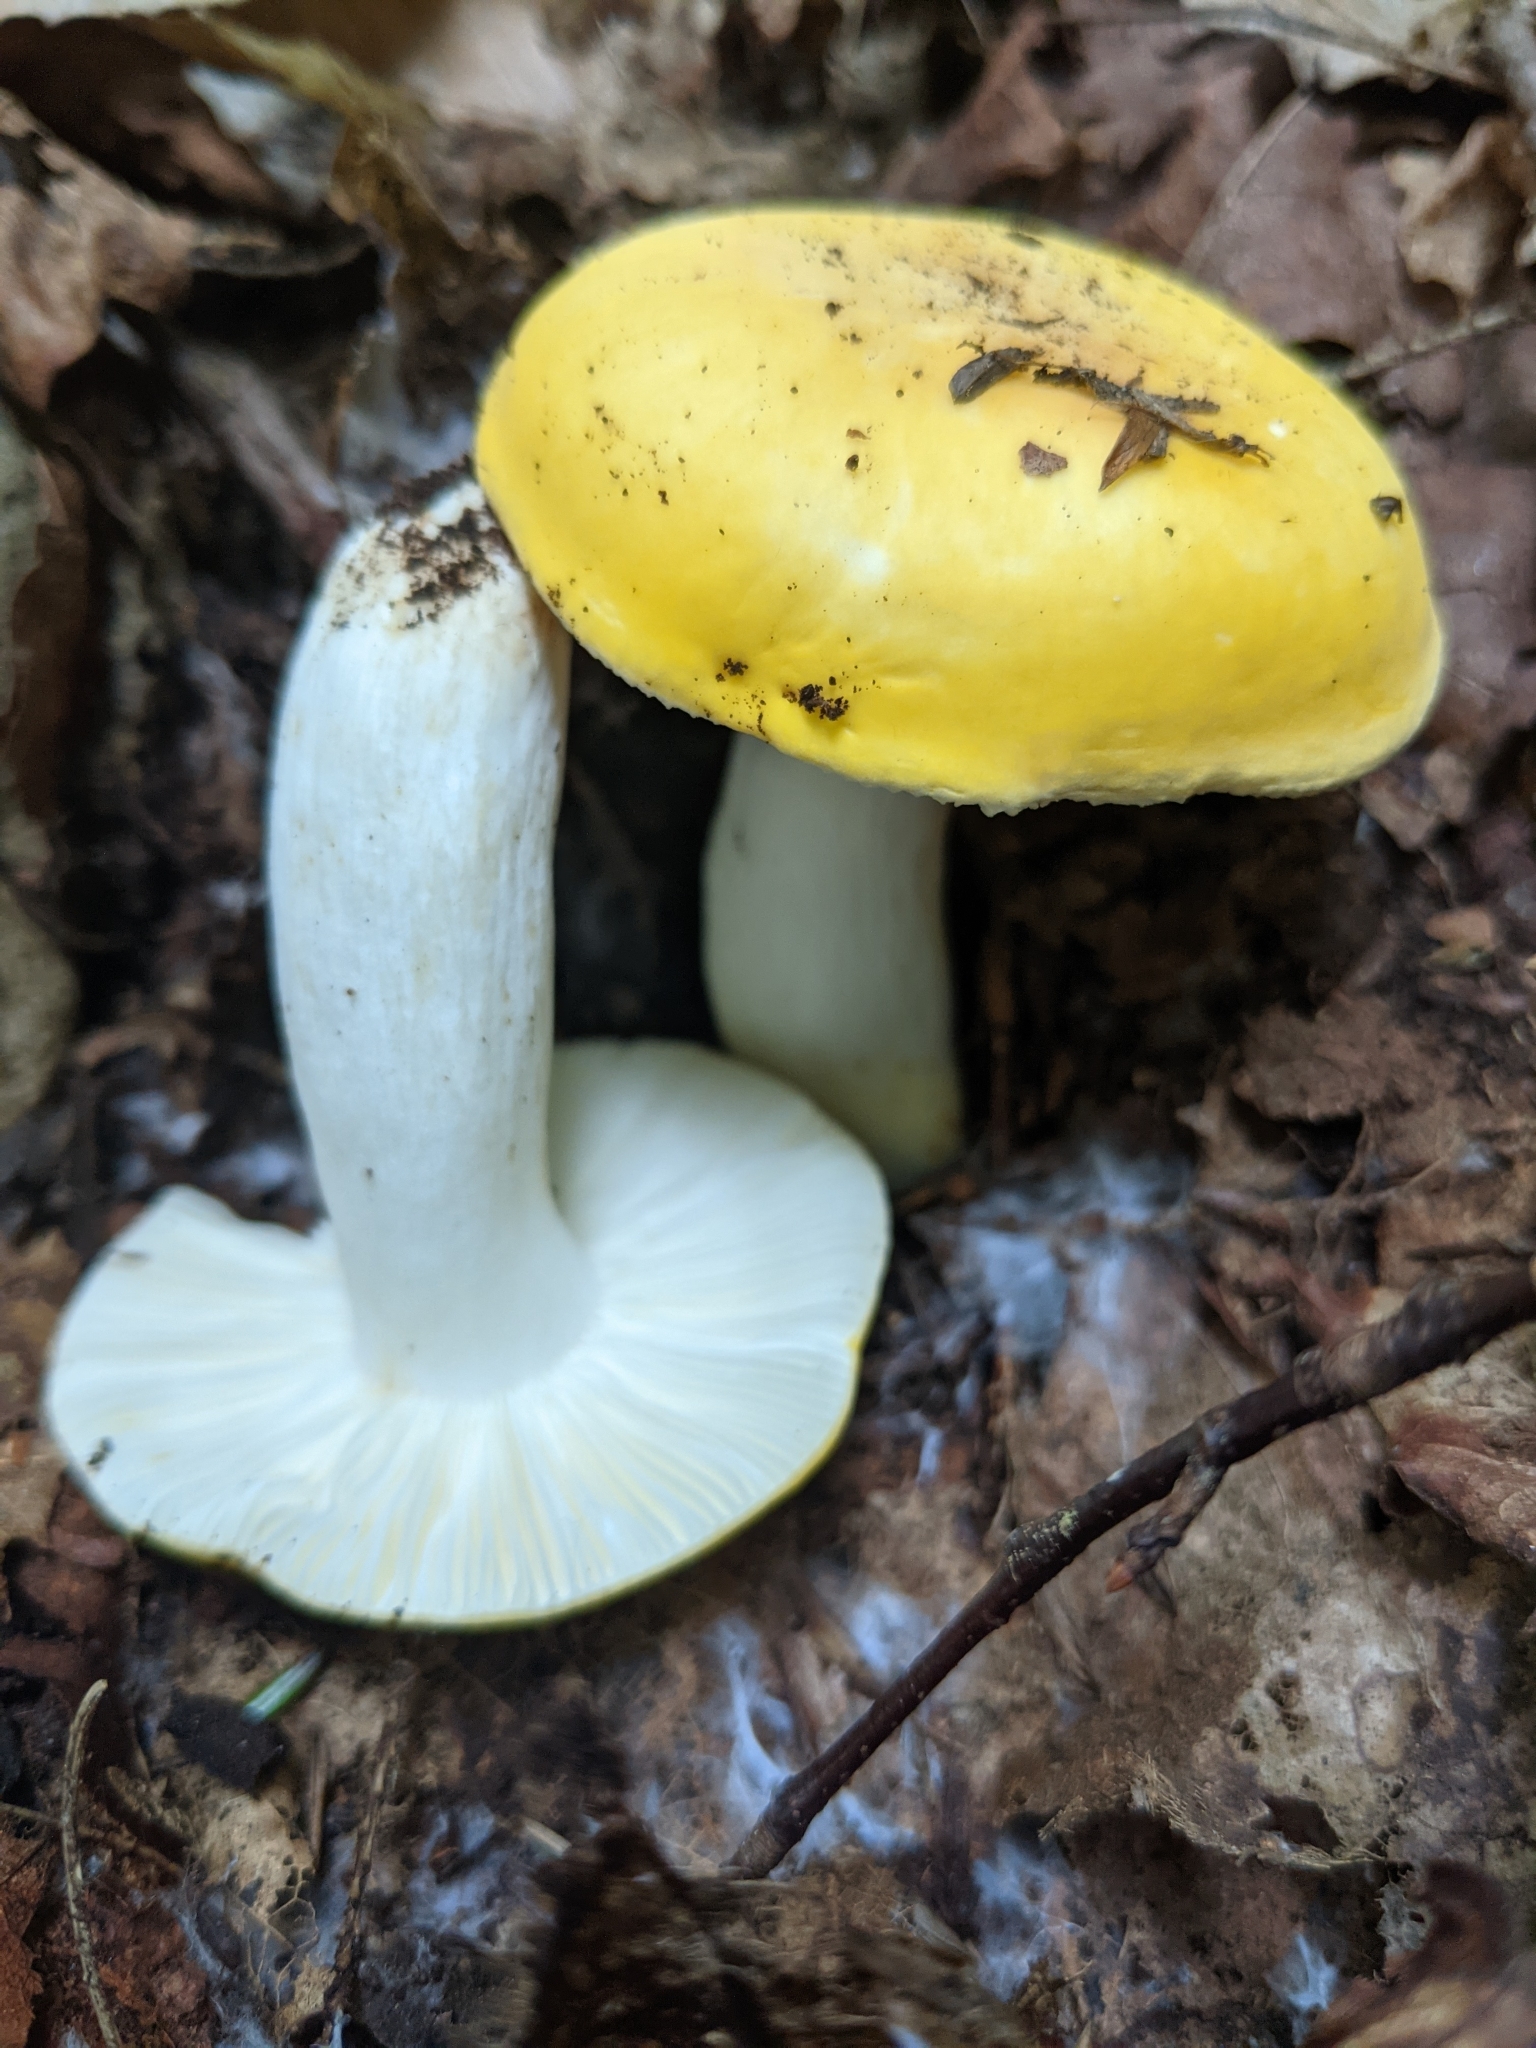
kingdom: Fungi
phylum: Basidiomycota
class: Agaricomycetes
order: Russulales
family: Russulaceae
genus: Russula
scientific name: Russula claroflava
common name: The yellow swamp brittlegill
